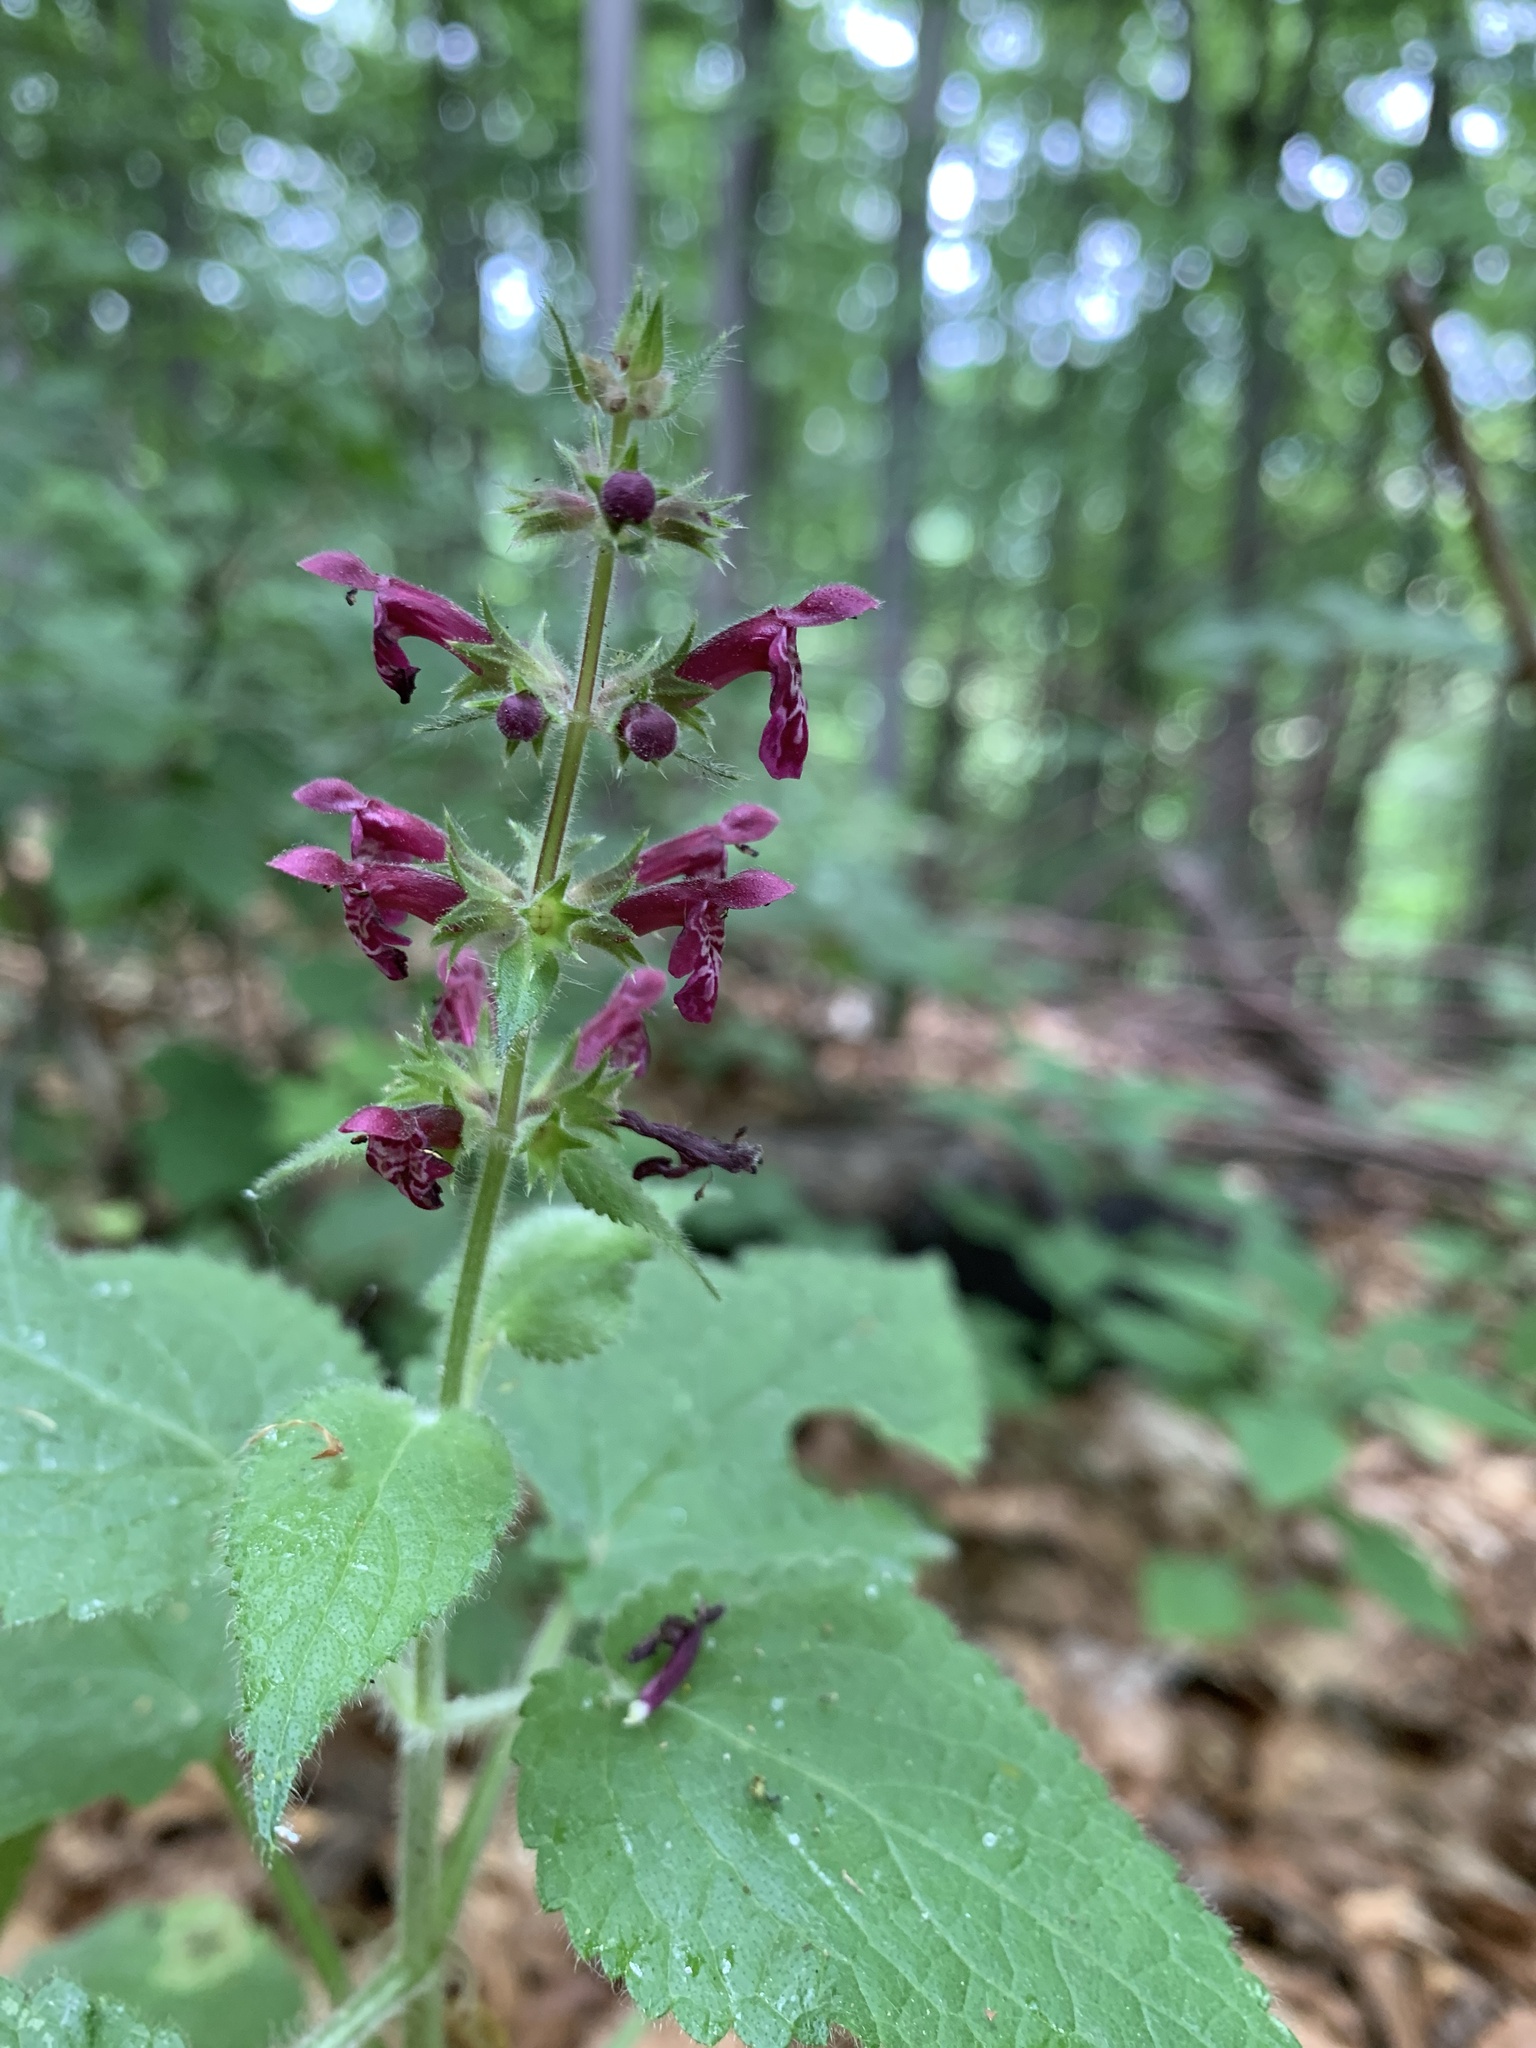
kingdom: Plantae
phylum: Tracheophyta
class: Magnoliopsida
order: Lamiales
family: Lamiaceae
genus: Stachys
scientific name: Stachys sylvatica
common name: Hedge woundwort
